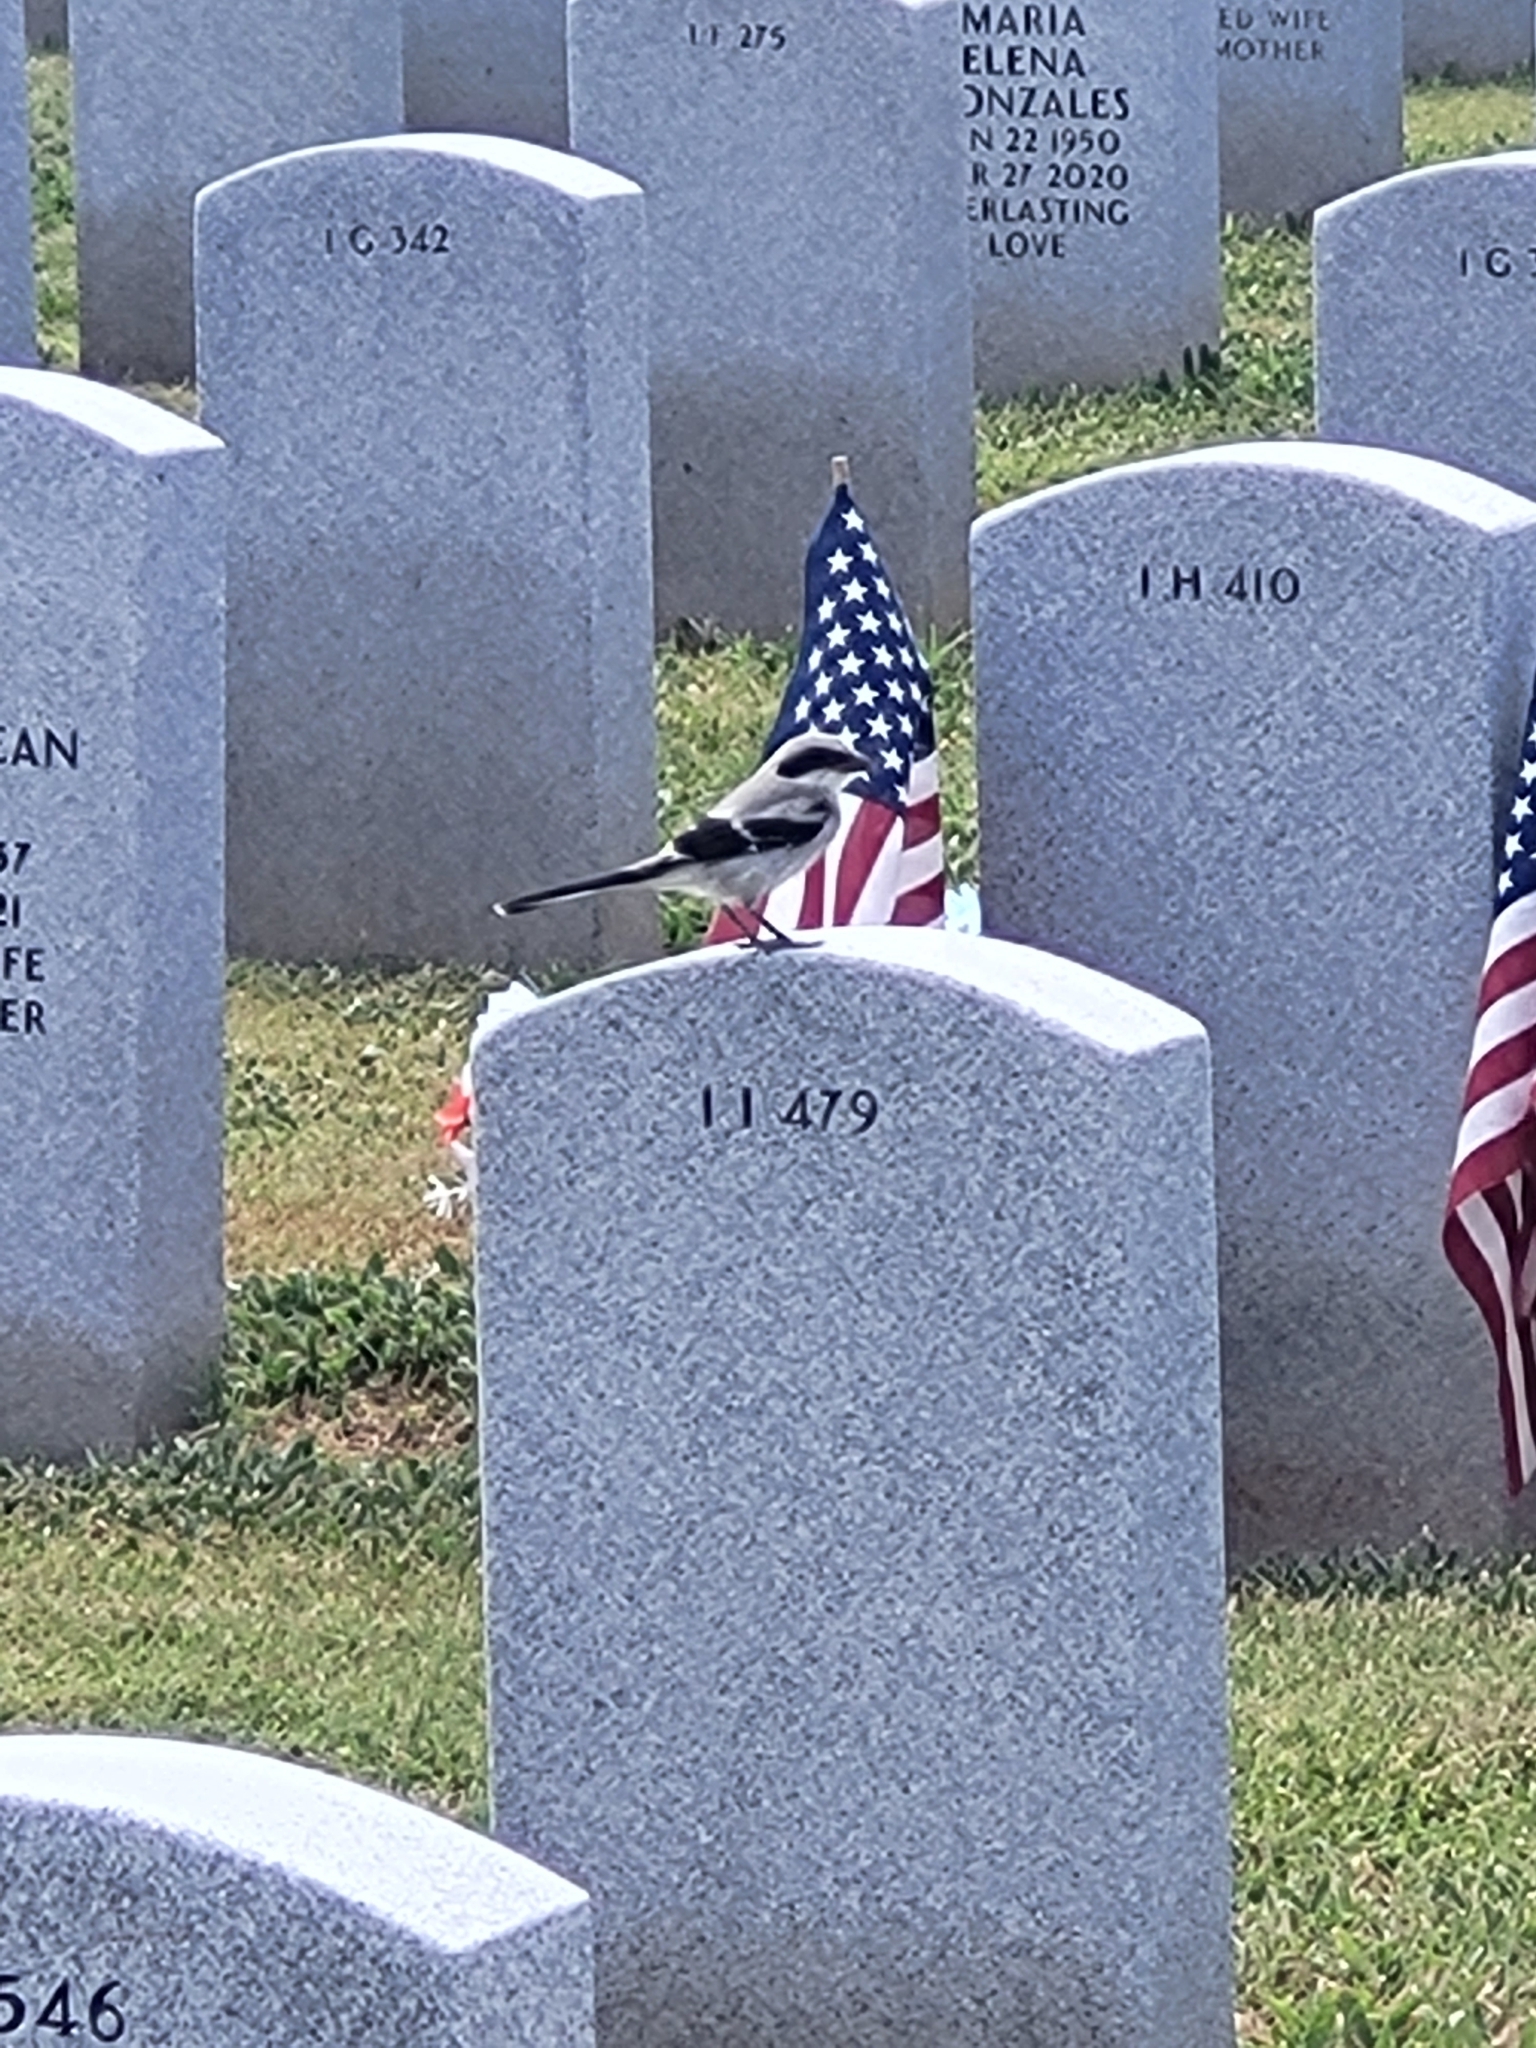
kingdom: Animalia
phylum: Chordata
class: Aves
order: Passeriformes
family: Laniidae
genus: Lanius
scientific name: Lanius ludovicianus
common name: Loggerhead shrike
